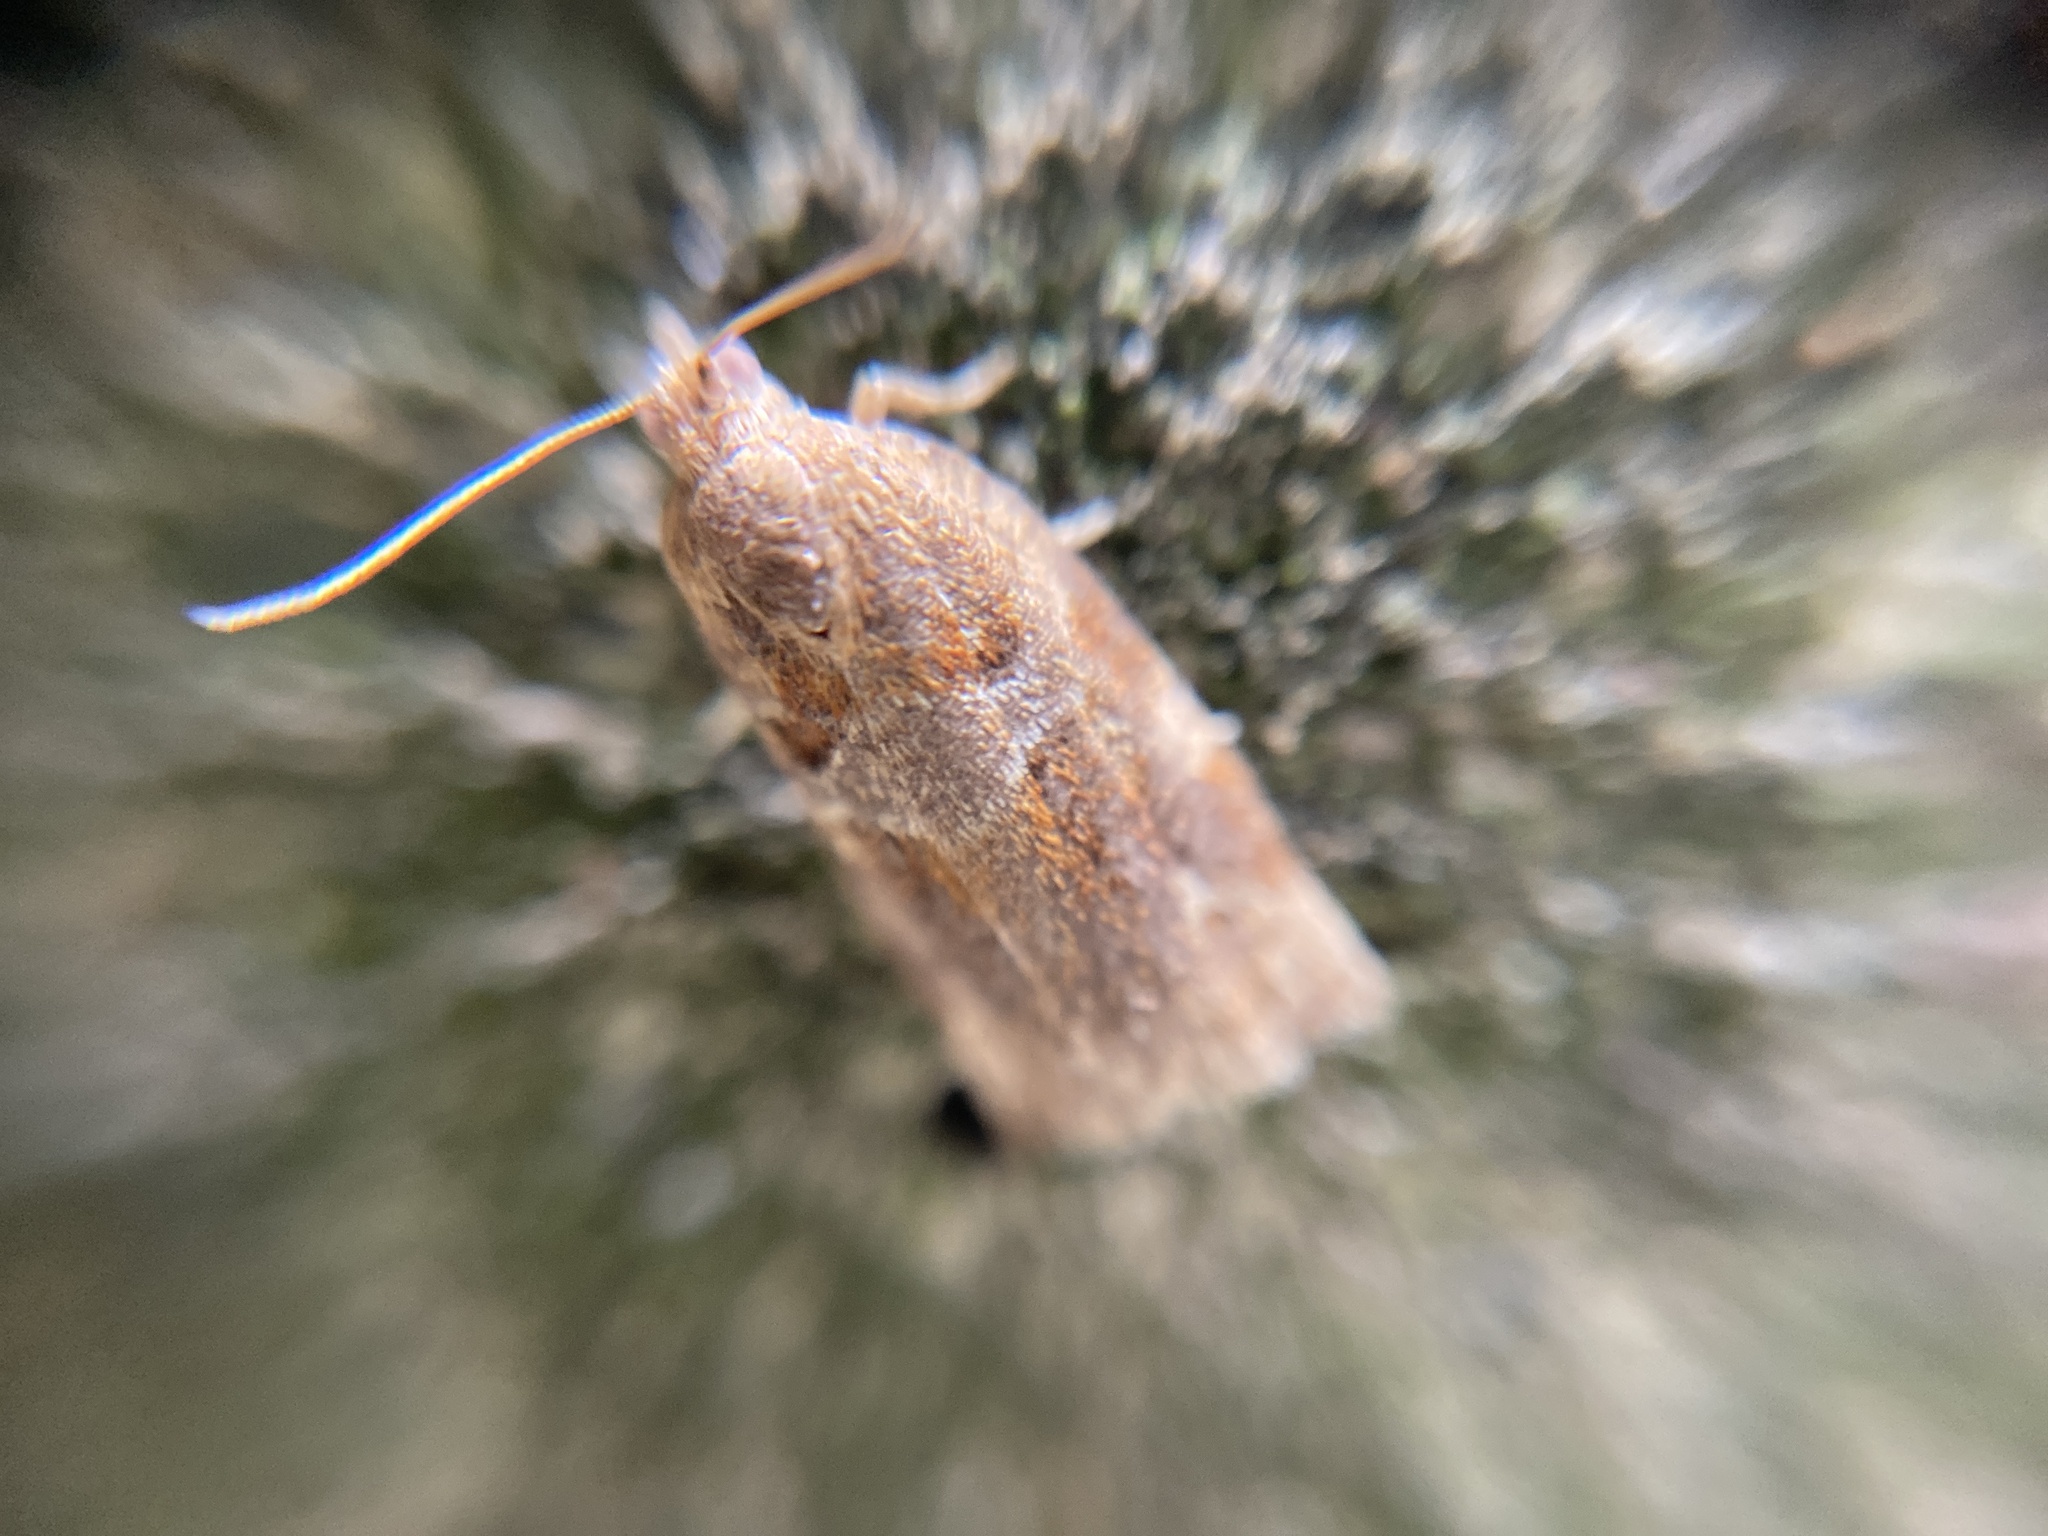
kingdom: Animalia
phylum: Arthropoda
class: Insecta
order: Lepidoptera
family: Tortricidae
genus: Archips
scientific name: Archips xylosteana
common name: Variegated golden tortrix
